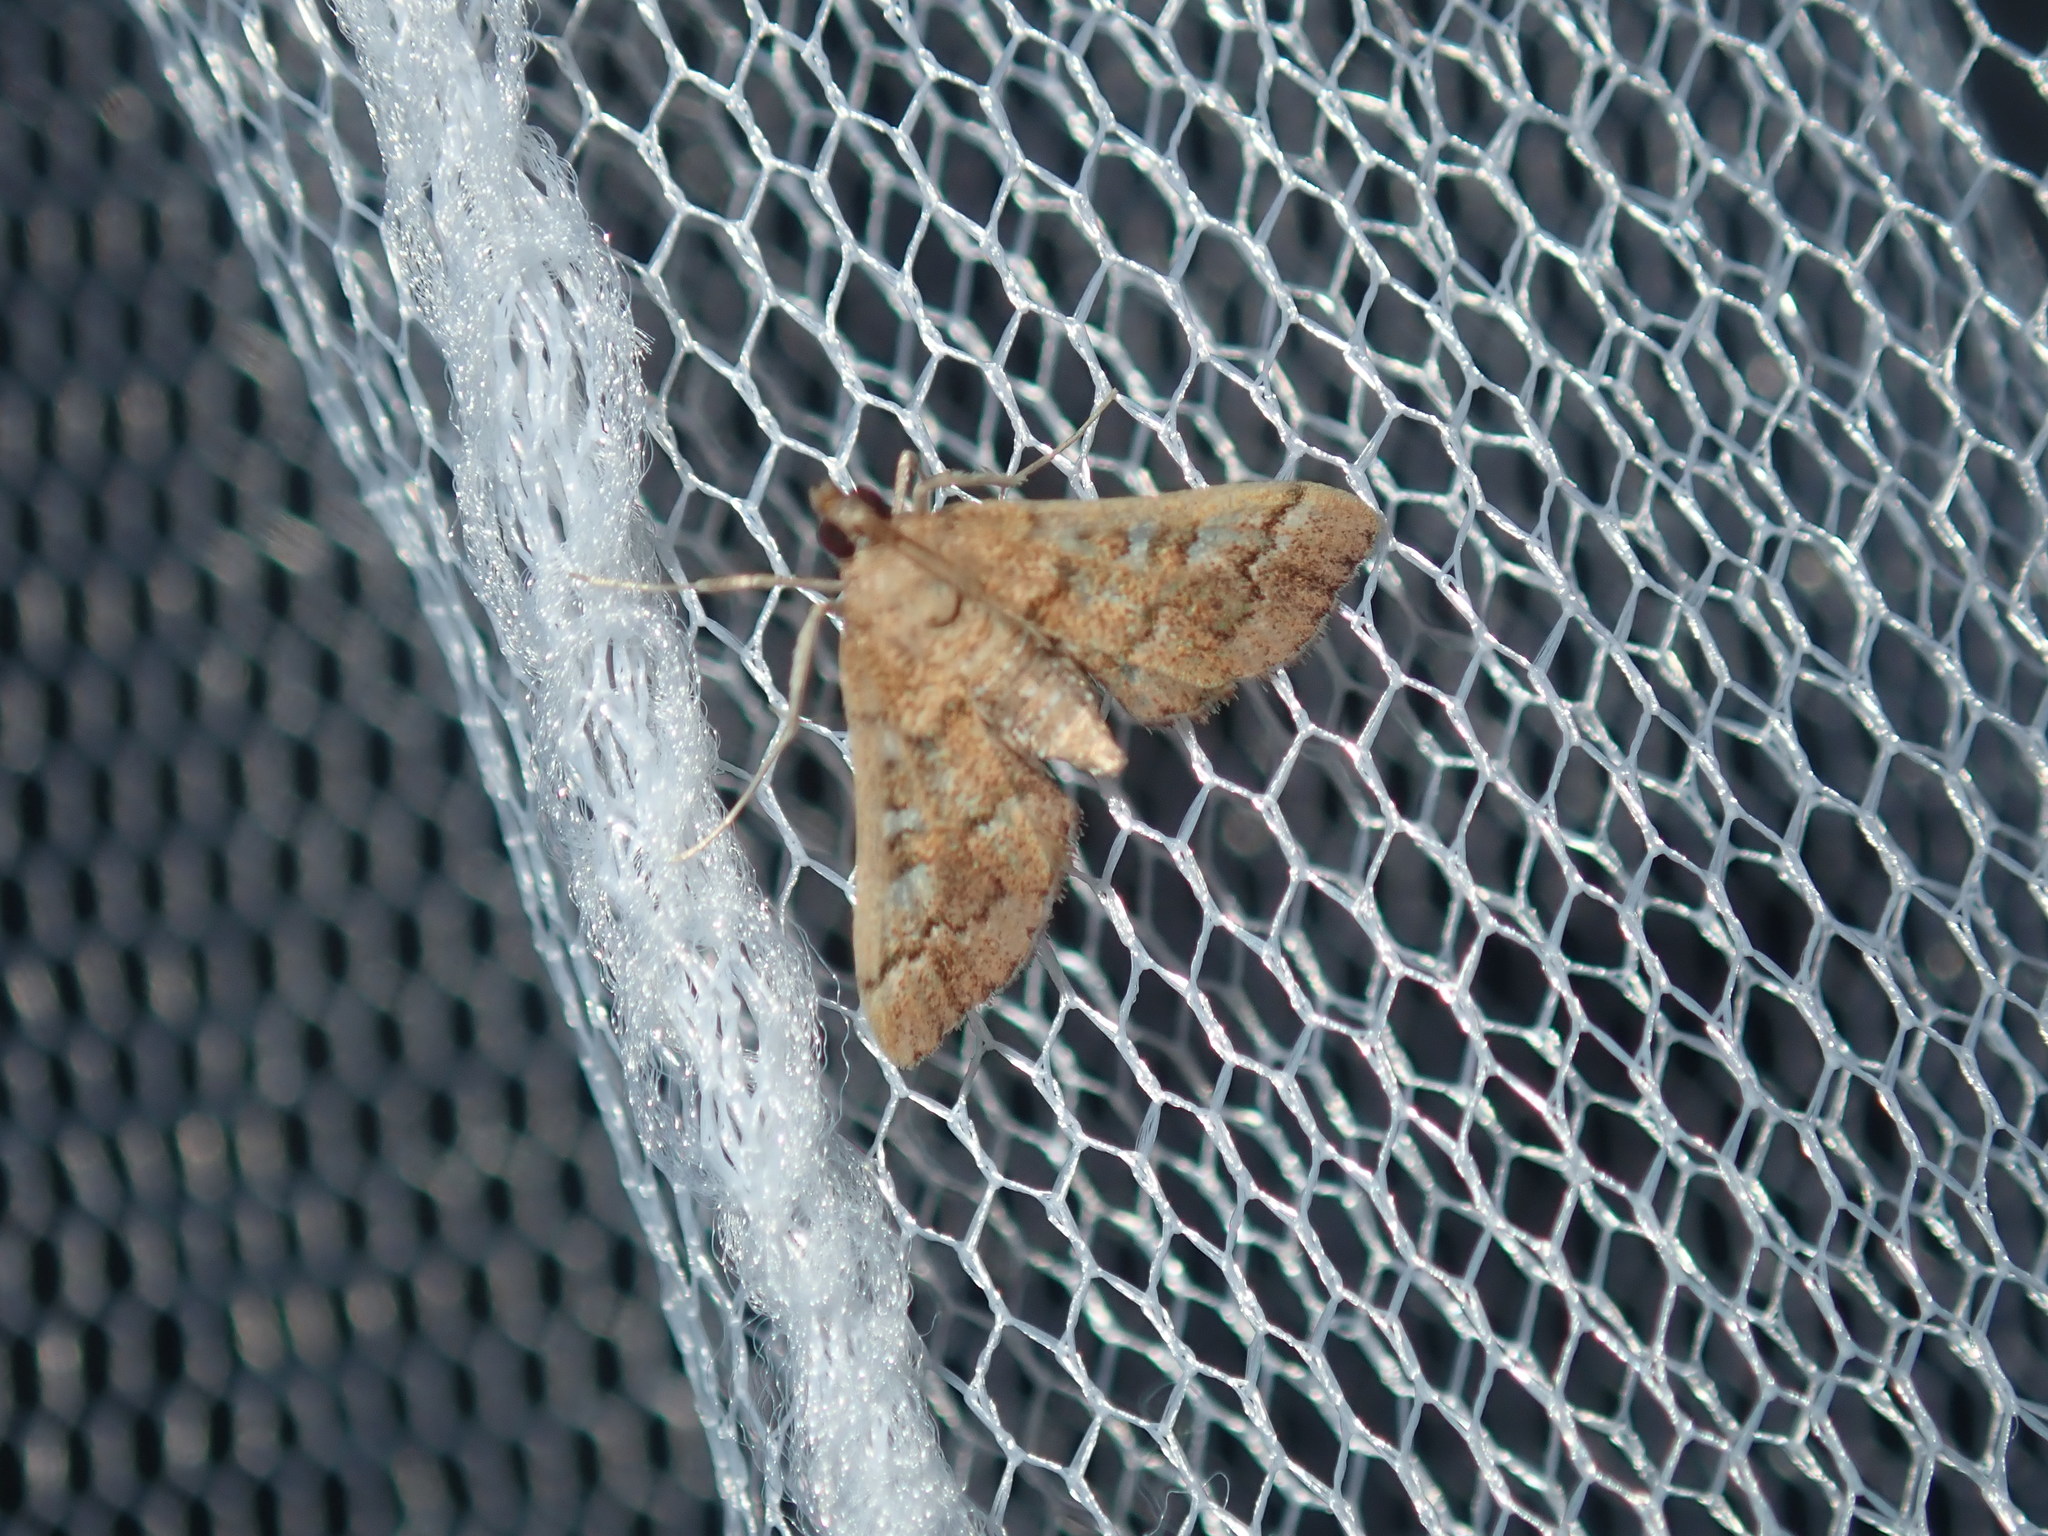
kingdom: Animalia
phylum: Arthropoda
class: Insecta
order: Lepidoptera
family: Crambidae
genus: Nacoleia
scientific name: Nacoleia rhoeoalis
